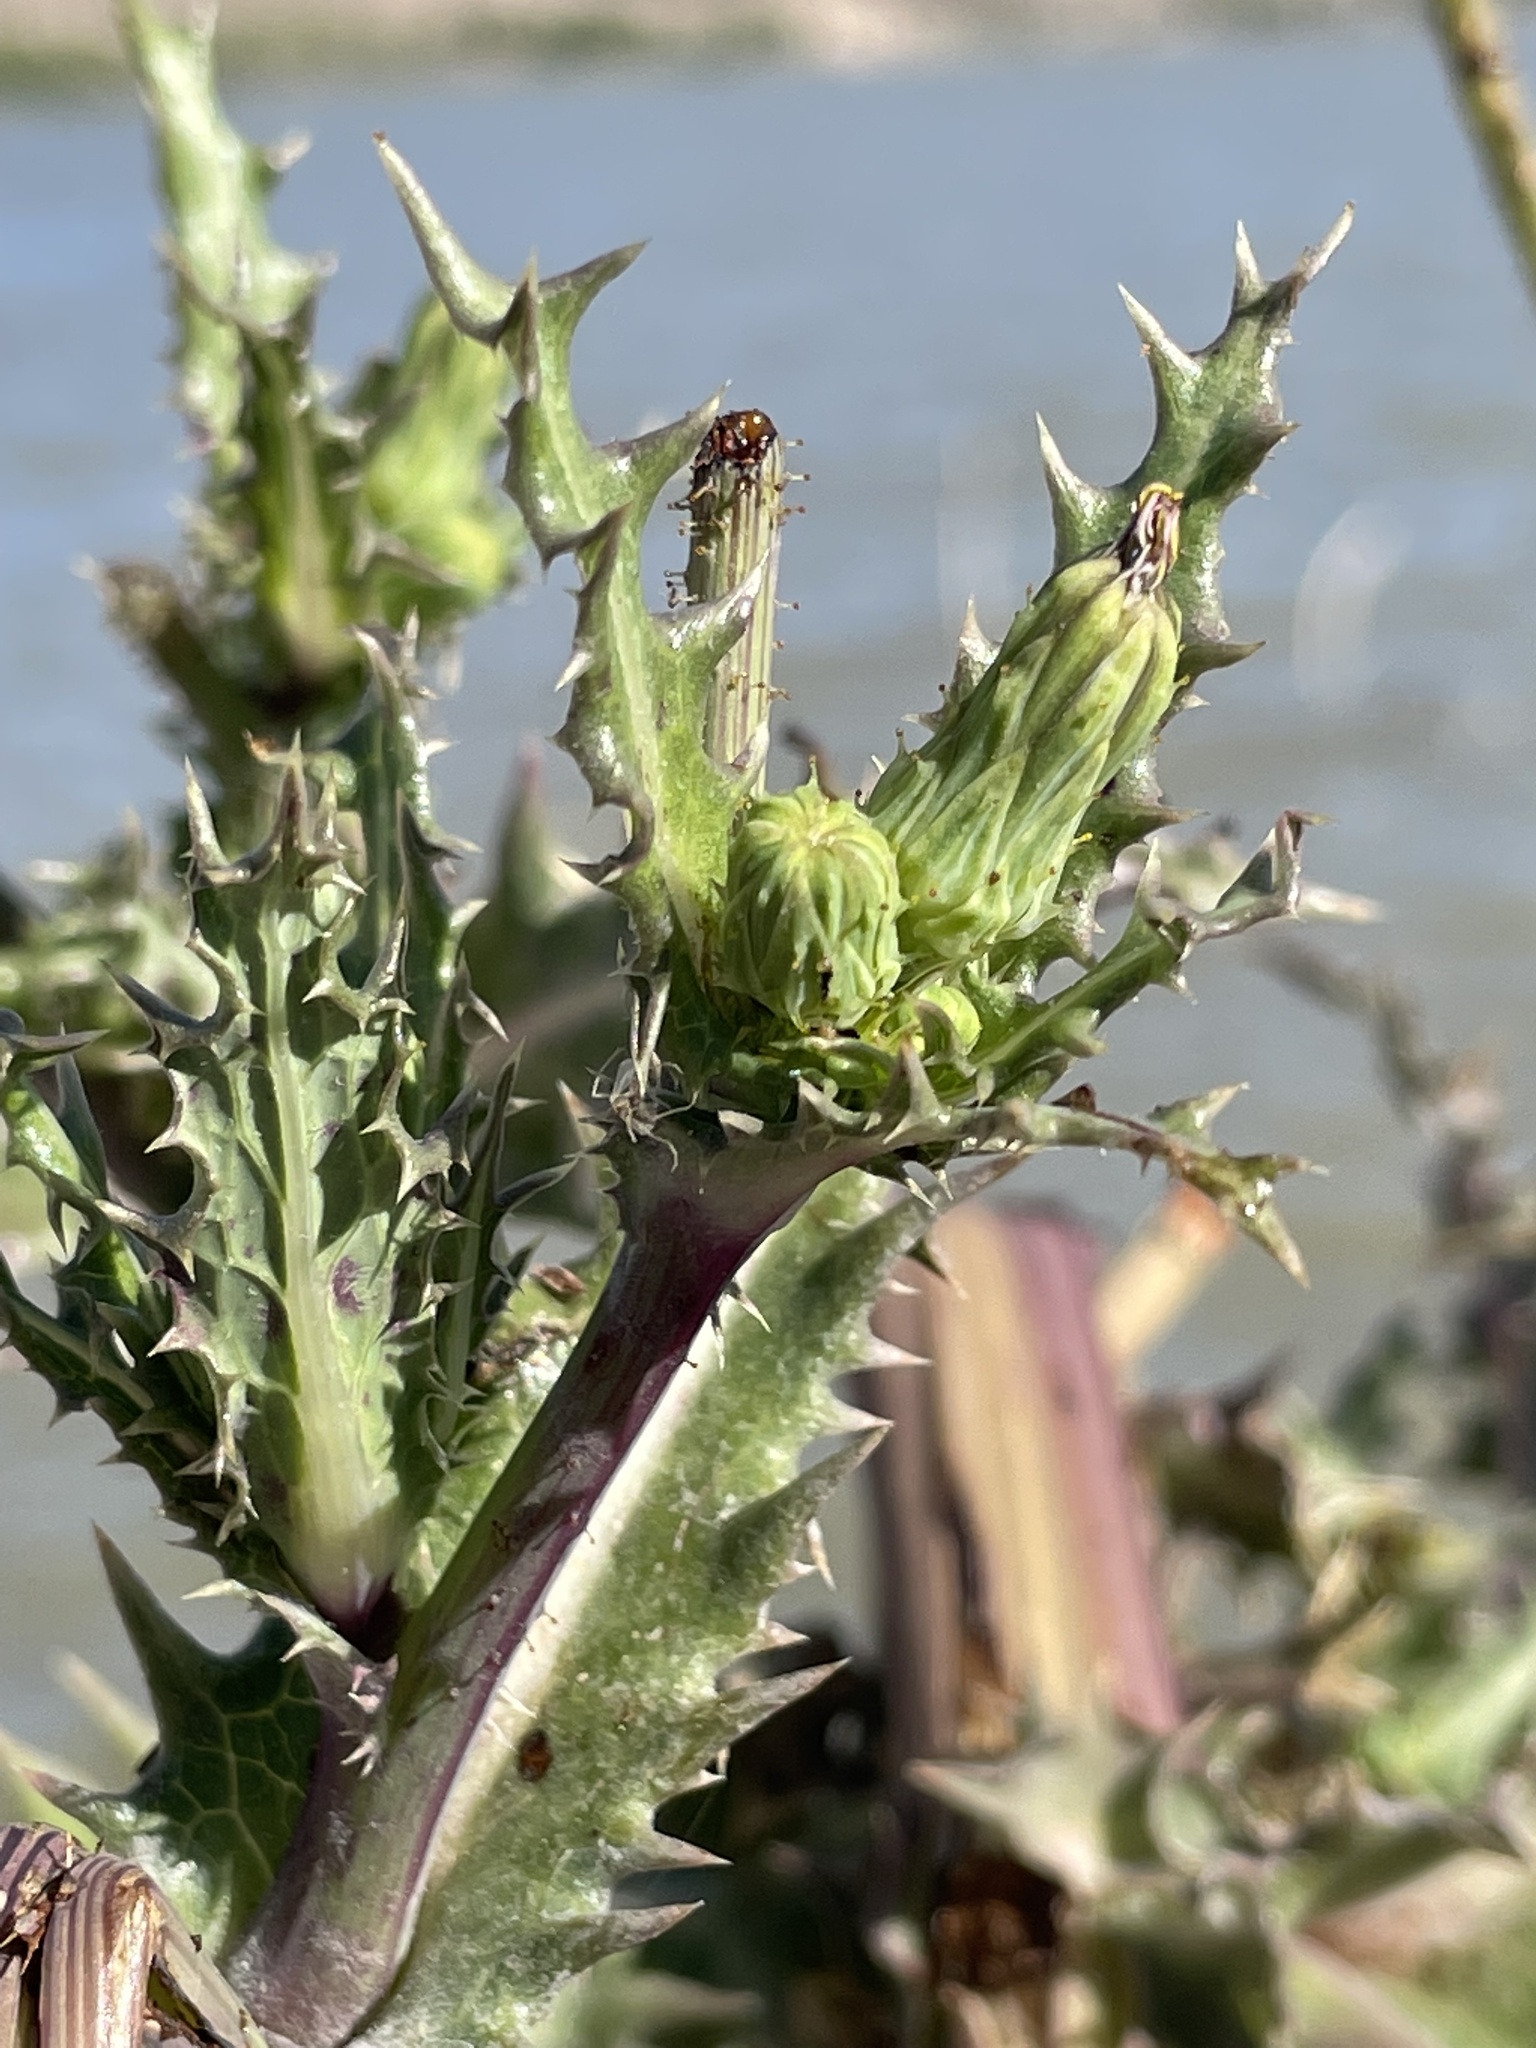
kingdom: Plantae
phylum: Tracheophyta
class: Magnoliopsida
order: Asterales
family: Asteraceae
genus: Sonchus
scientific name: Sonchus asper
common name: Prickly sow-thistle
